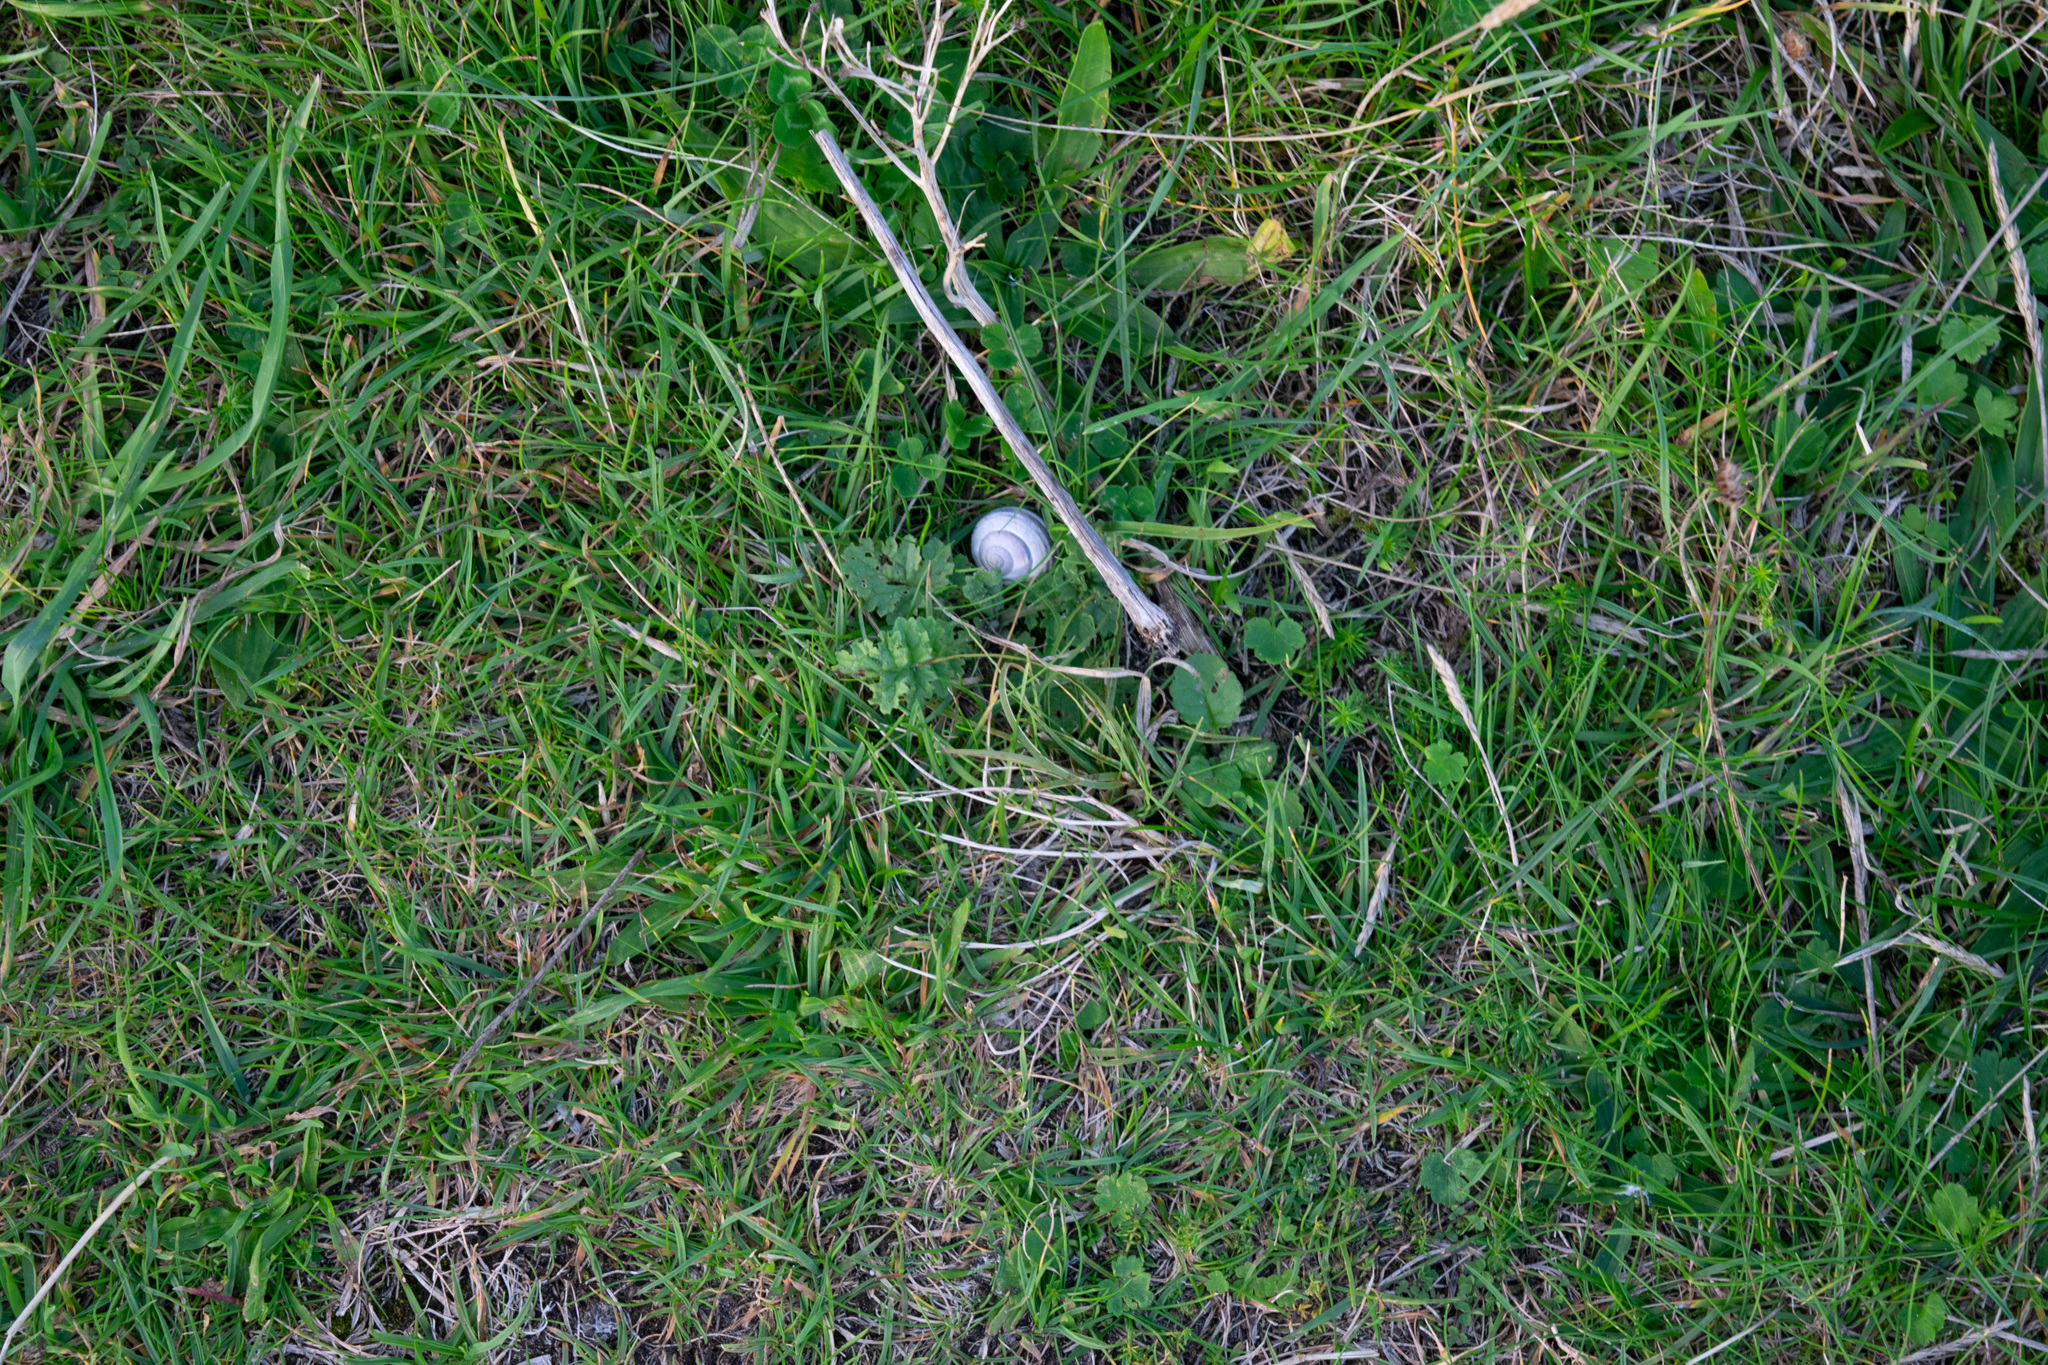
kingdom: Animalia
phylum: Mollusca
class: Gastropoda
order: Stylommatophora
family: Helicidae
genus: Cepaea
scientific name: Cepaea
